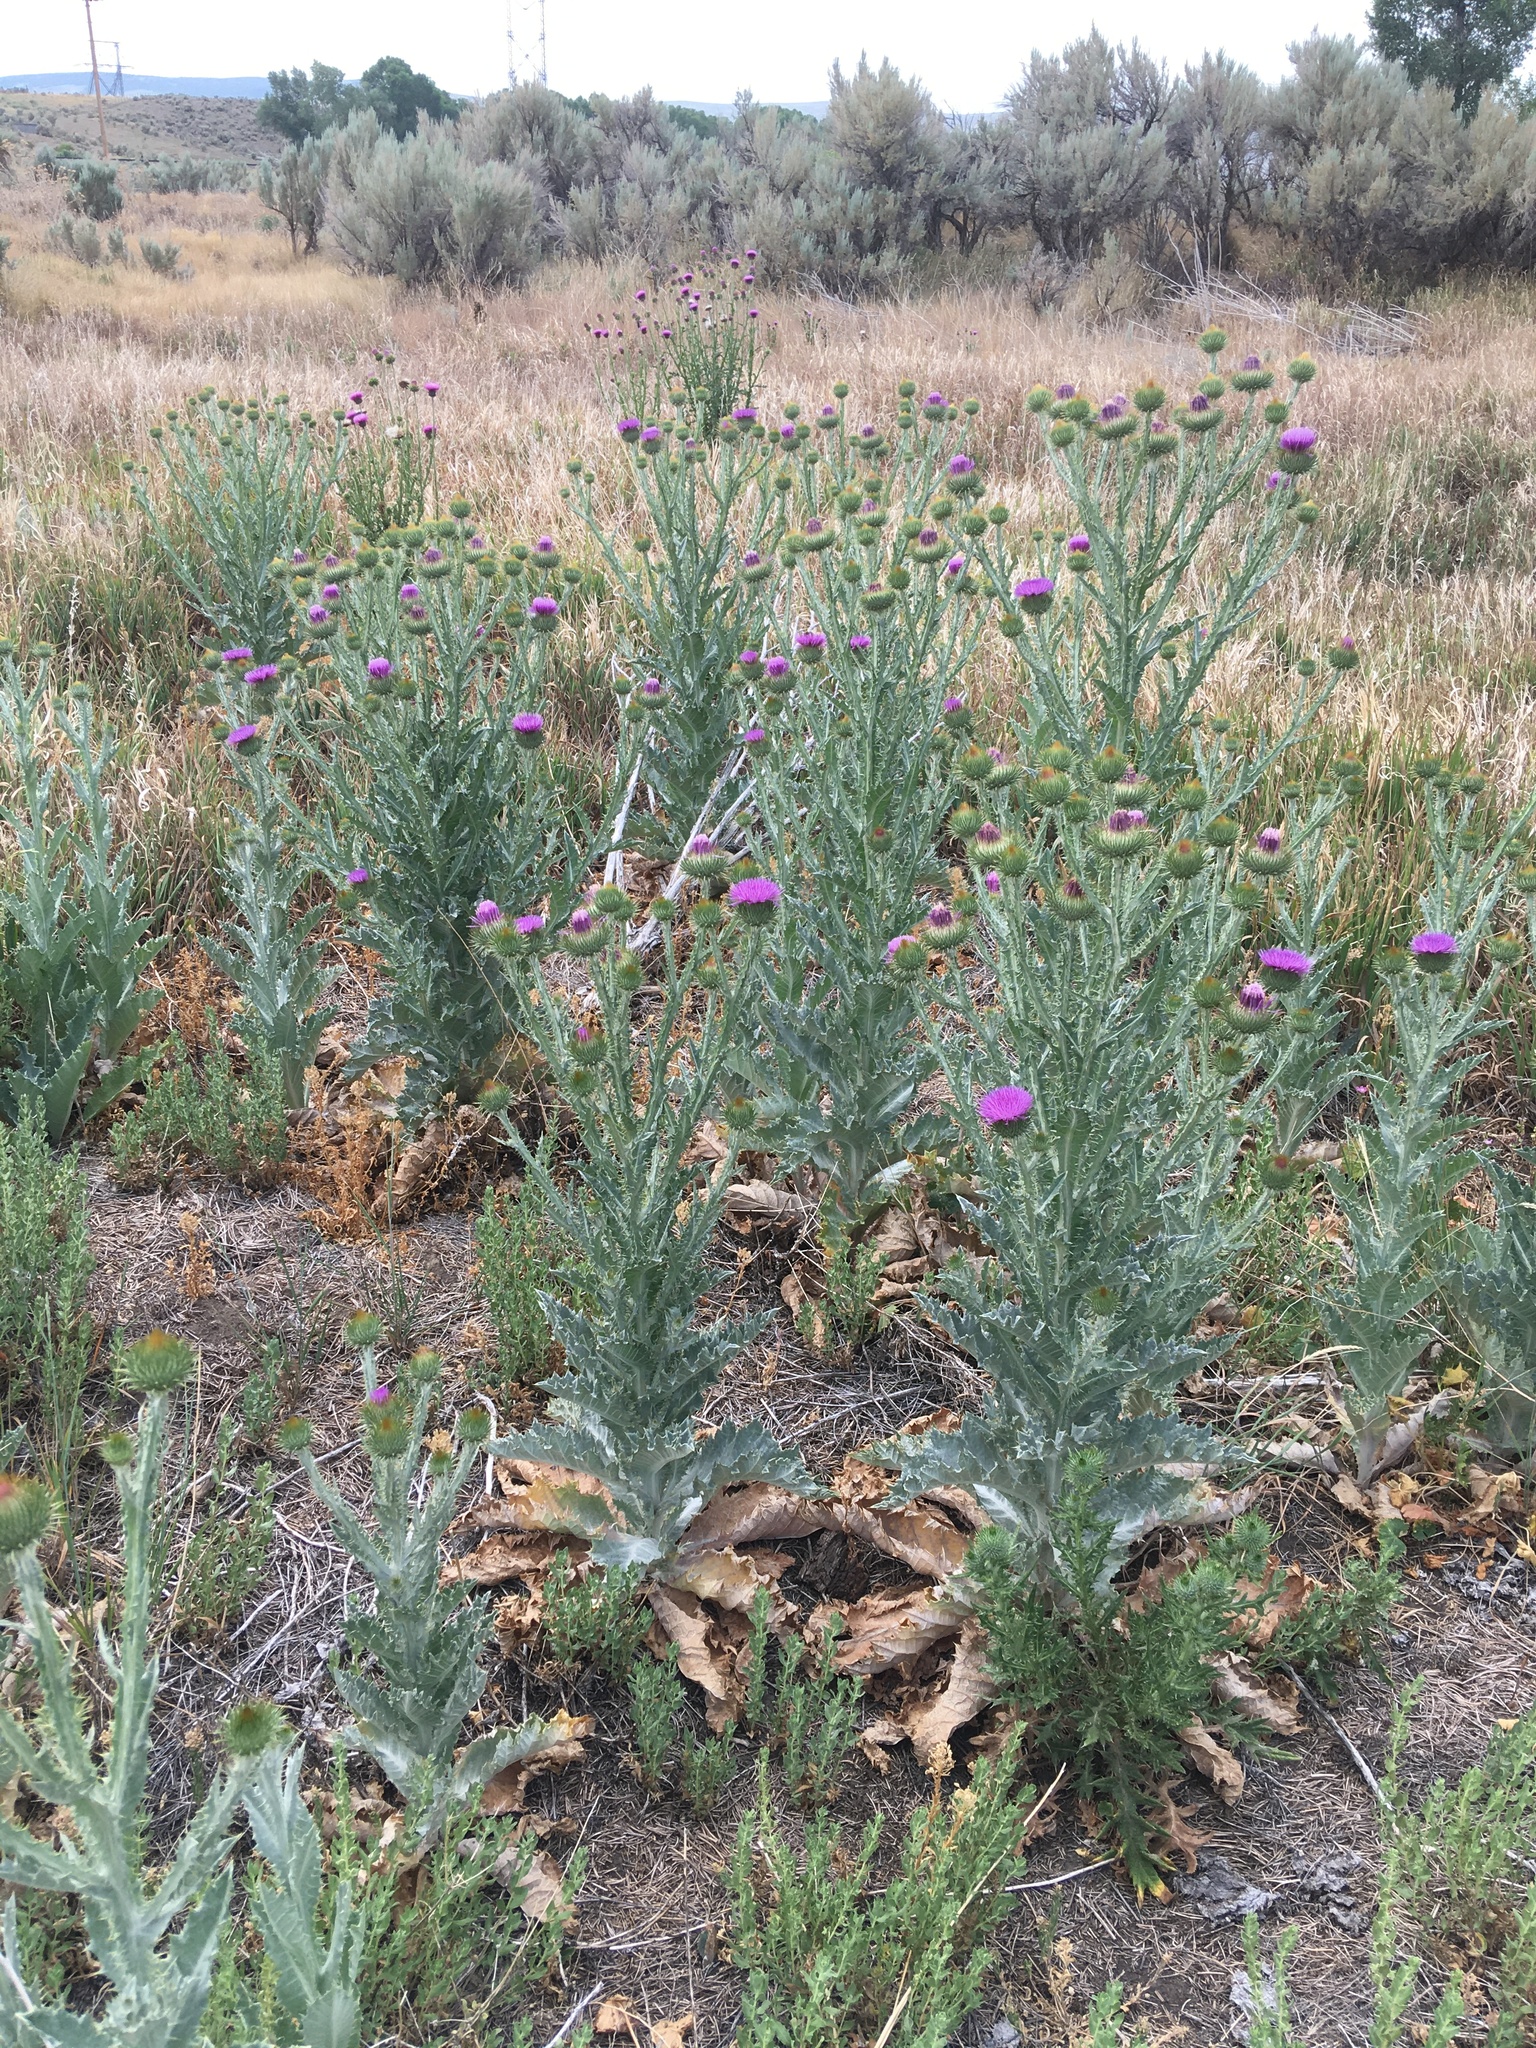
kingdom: Plantae
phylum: Tracheophyta
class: Magnoliopsida
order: Asterales
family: Asteraceae
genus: Onopordum
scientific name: Onopordum acanthium
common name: Scotch thistle
